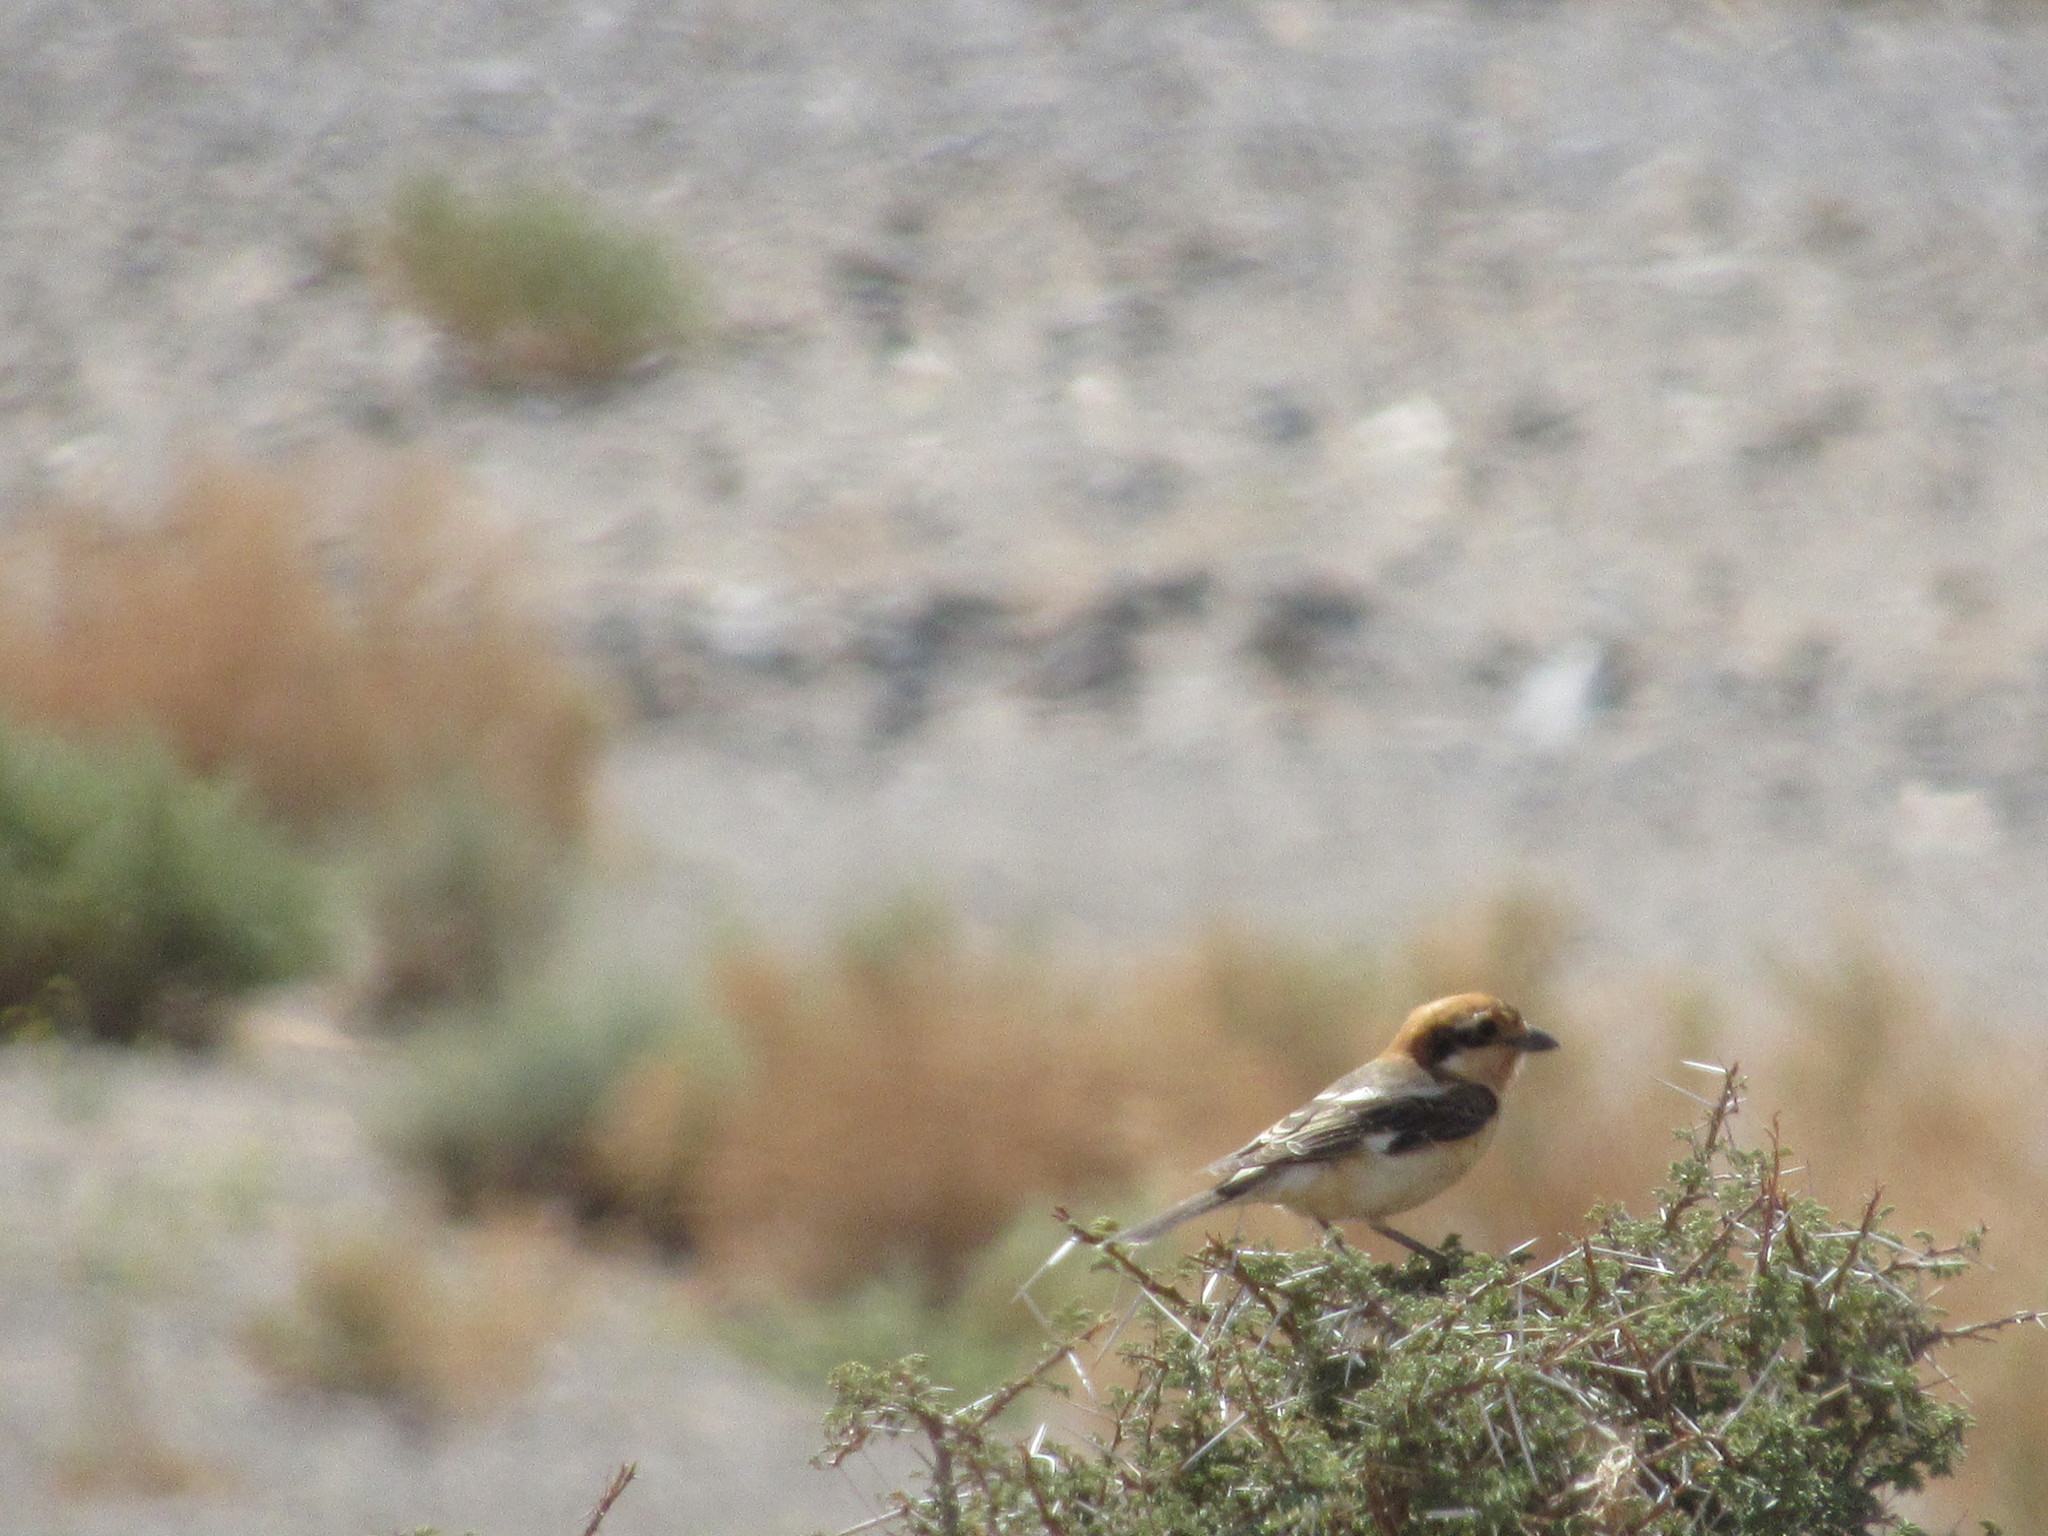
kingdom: Animalia
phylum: Chordata
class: Aves
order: Passeriformes
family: Laniidae
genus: Lanius
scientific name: Lanius senator
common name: Woodchat shrike
